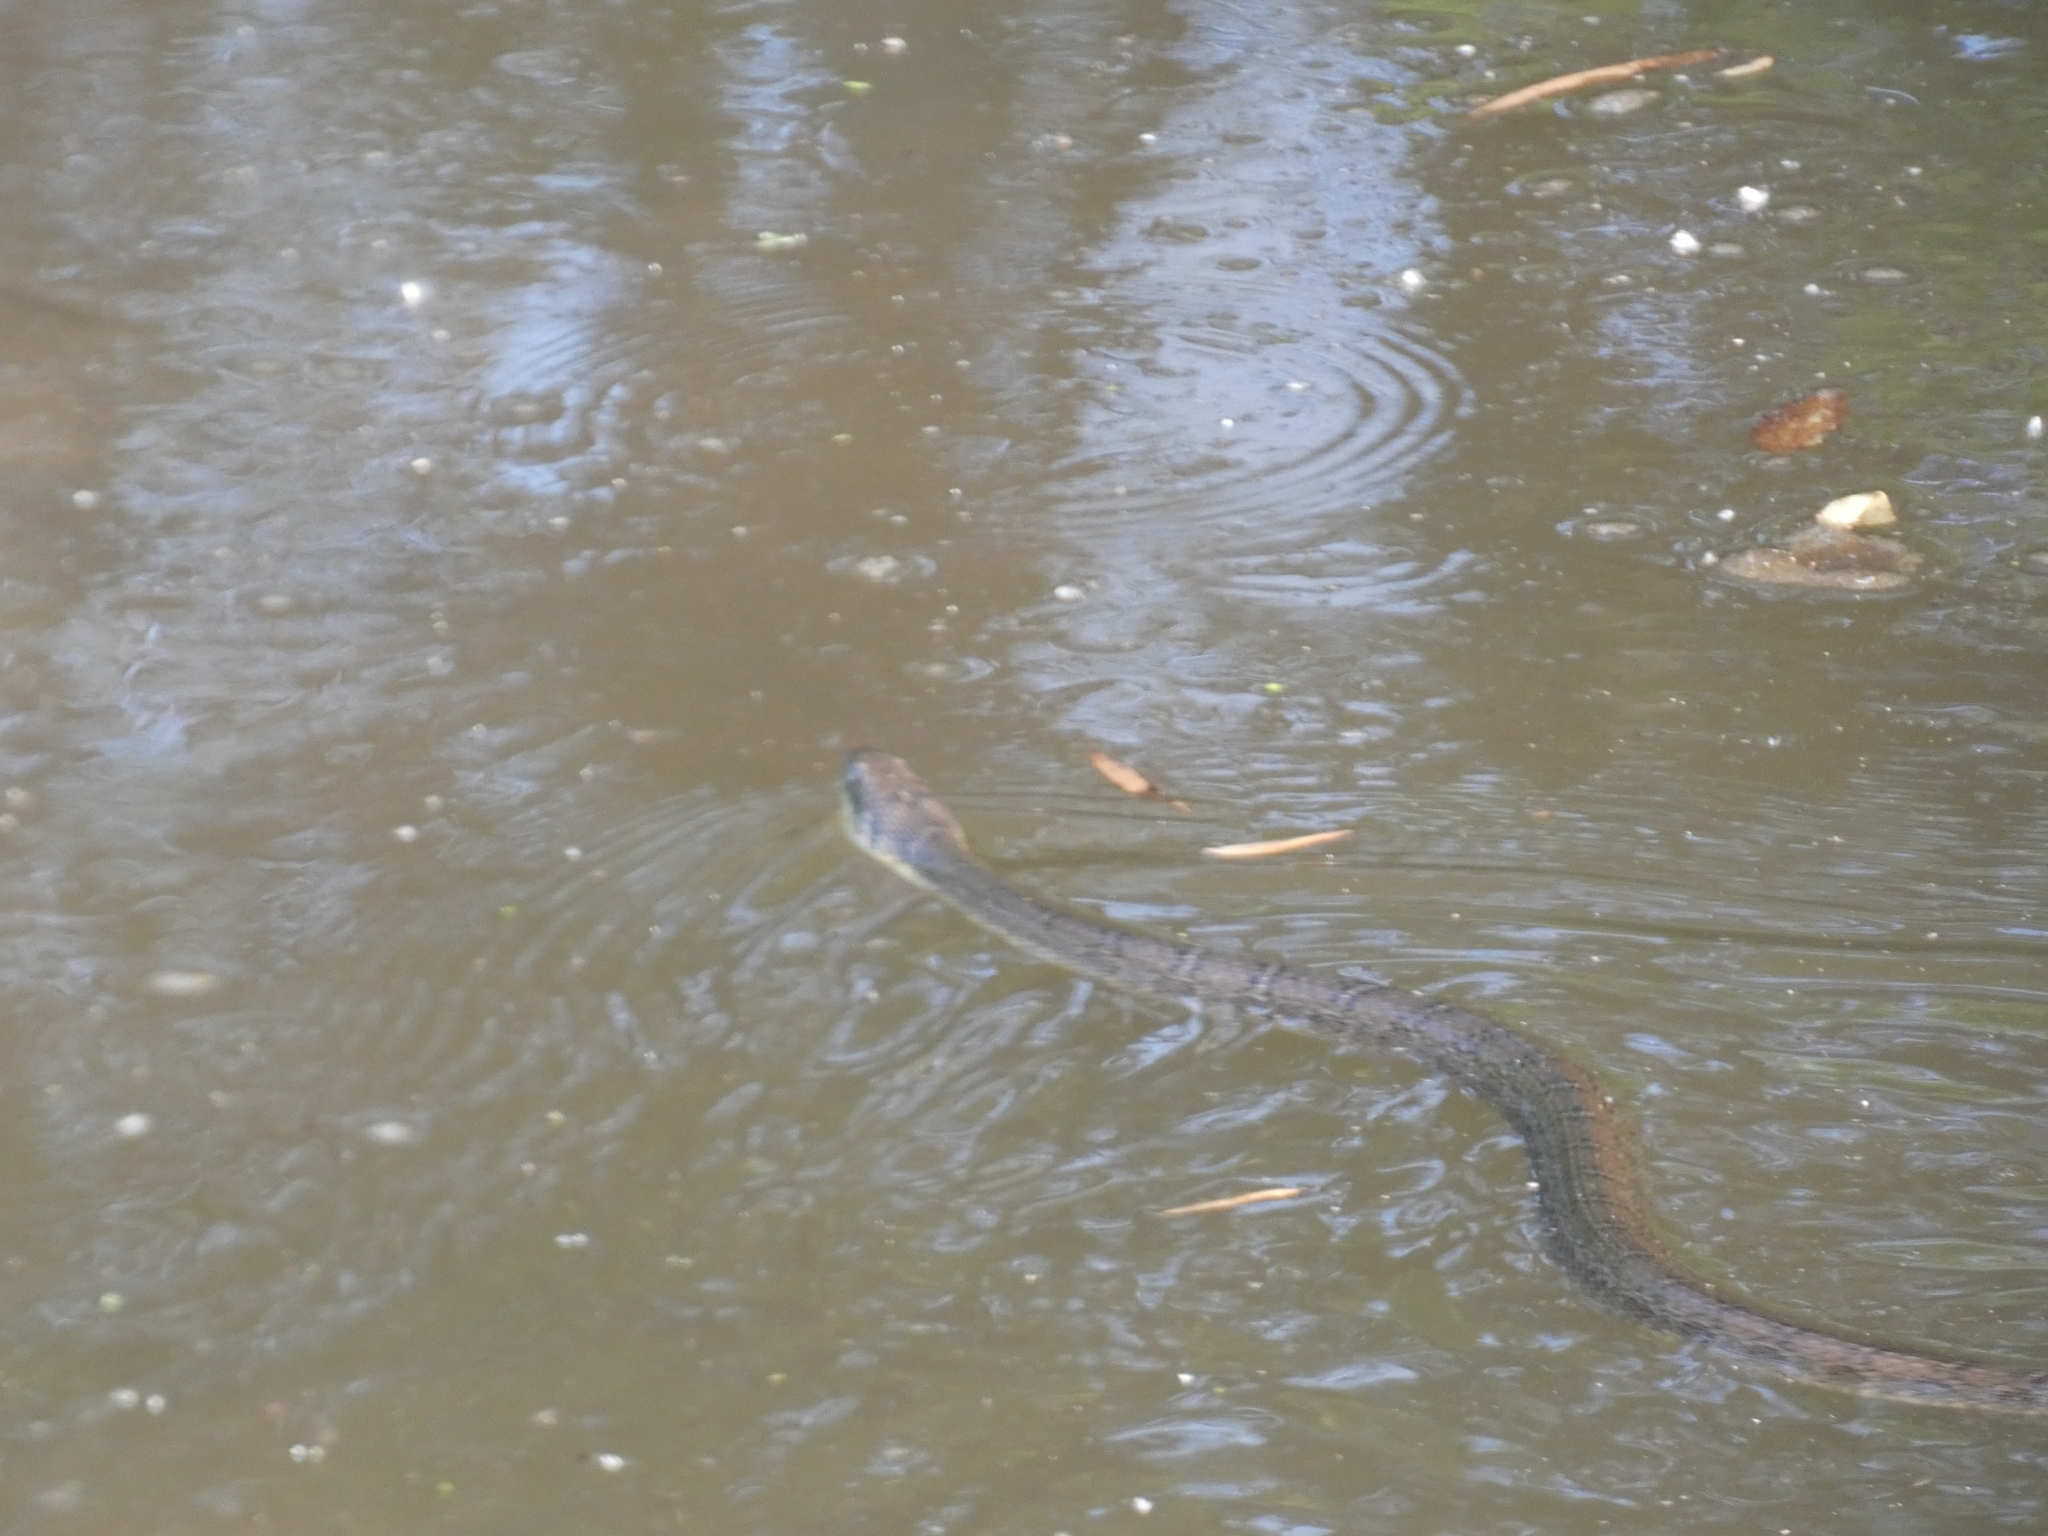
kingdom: Animalia
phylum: Chordata
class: Squamata
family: Colubridae
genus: Nerodia
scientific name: Nerodia erythrogaster
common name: Plainbelly water snake
